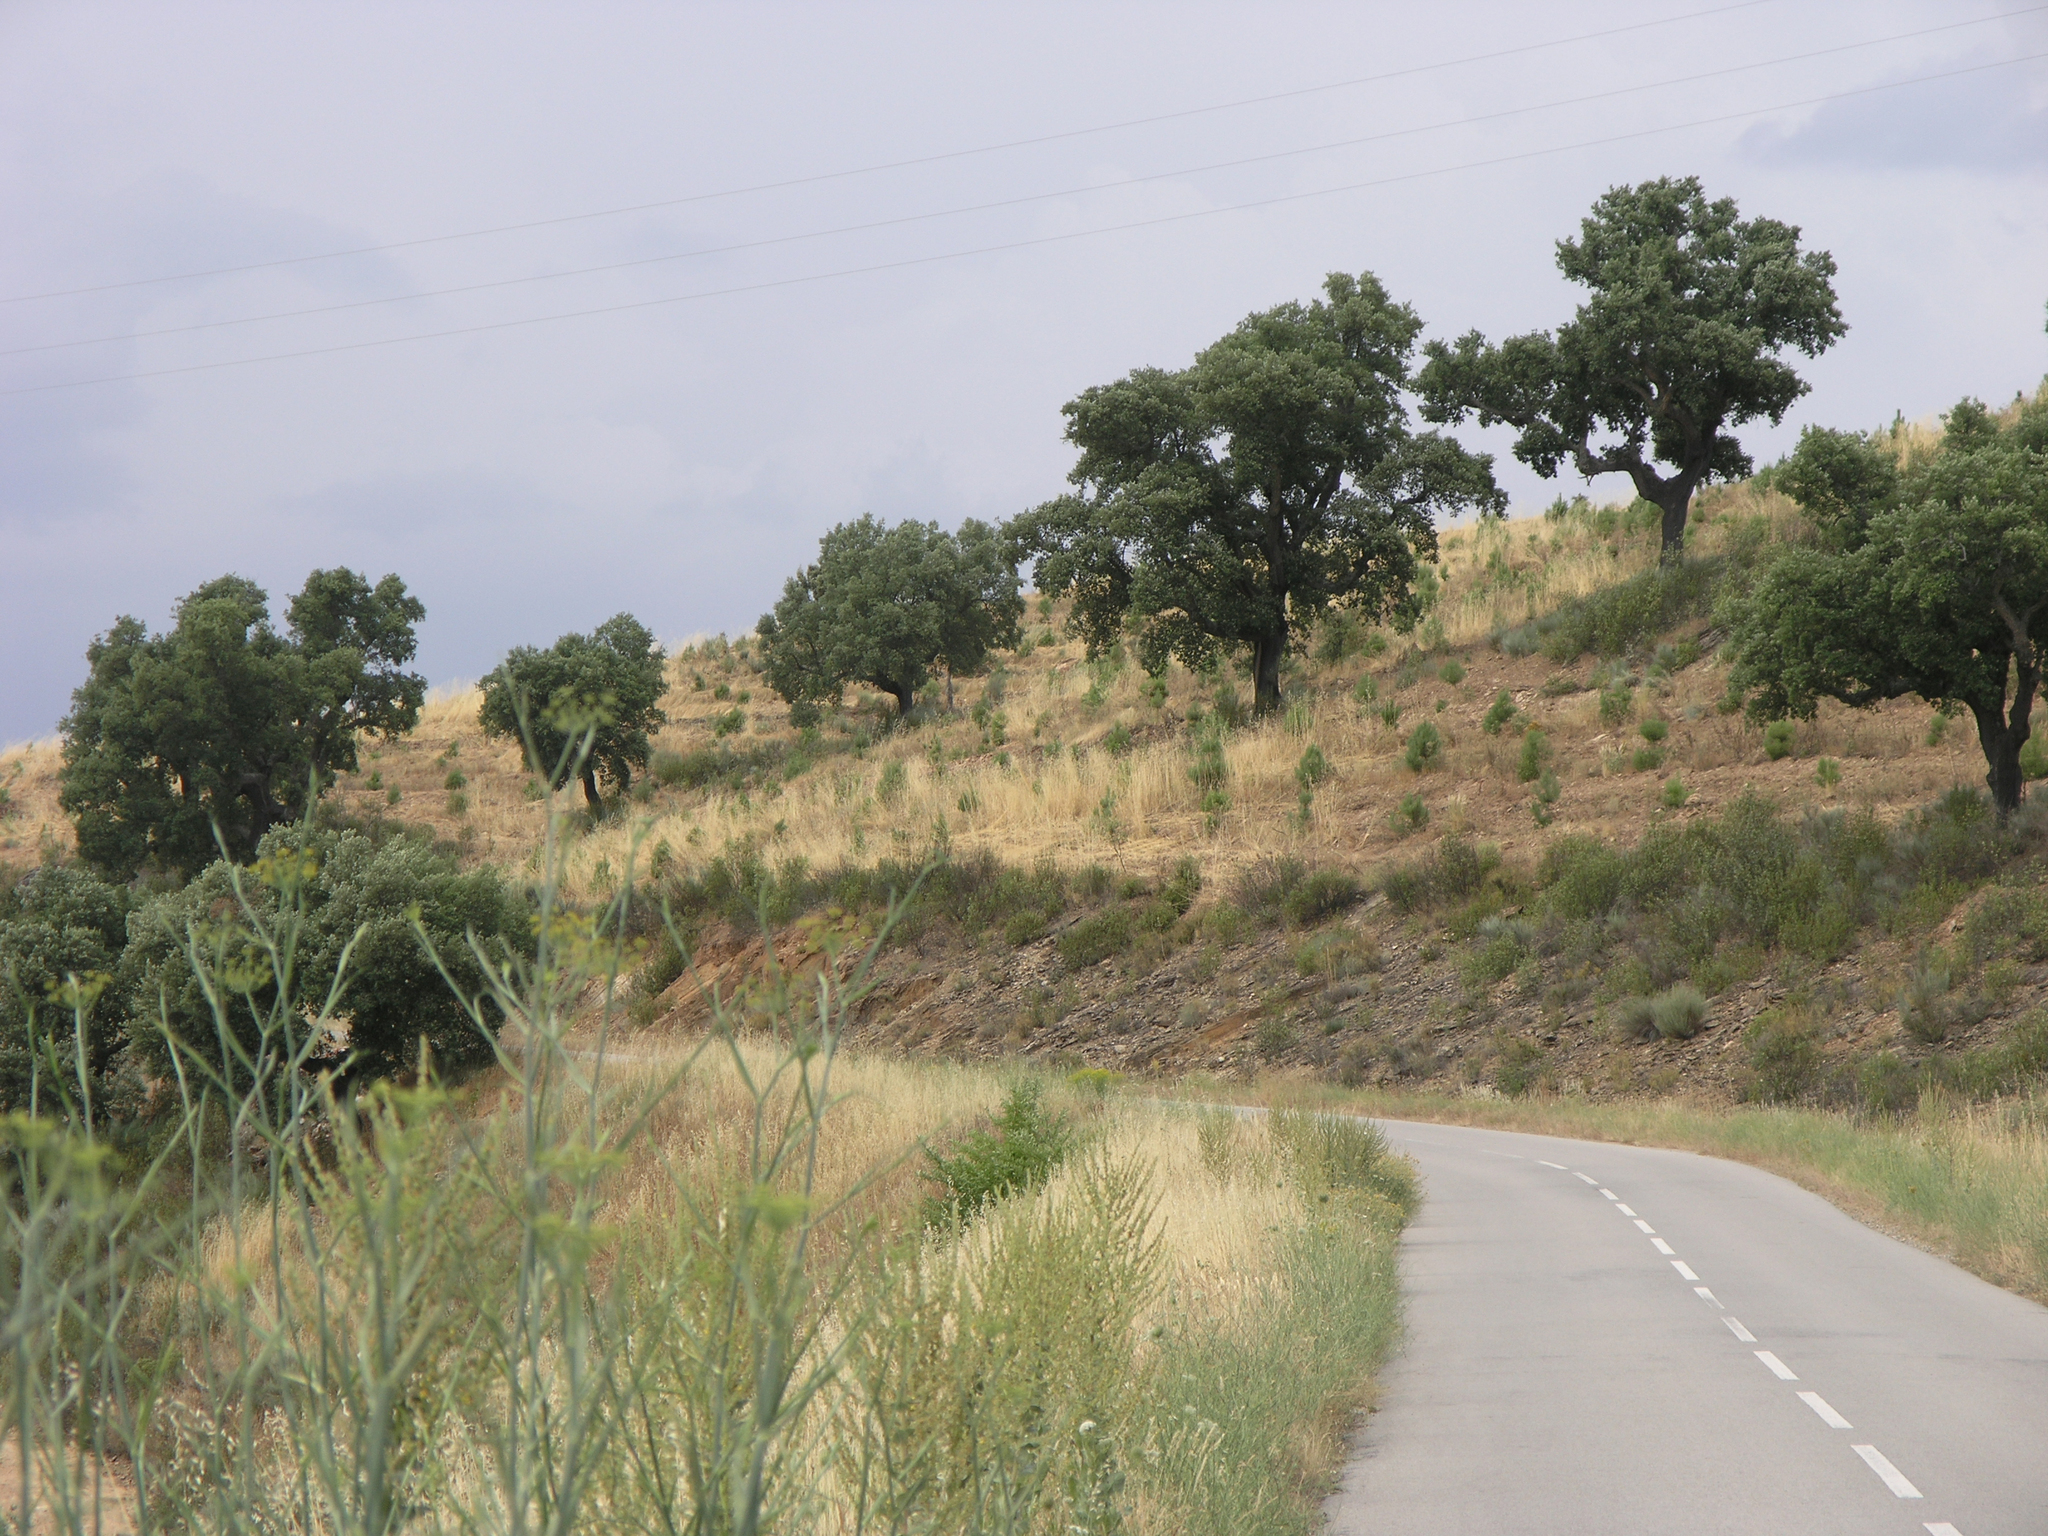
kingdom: Plantae
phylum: Tracheophyta
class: Magnoliopsida
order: Fagales
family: Fagaceae
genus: Quercus
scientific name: Quercus rotundifolia
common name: Holm oak
